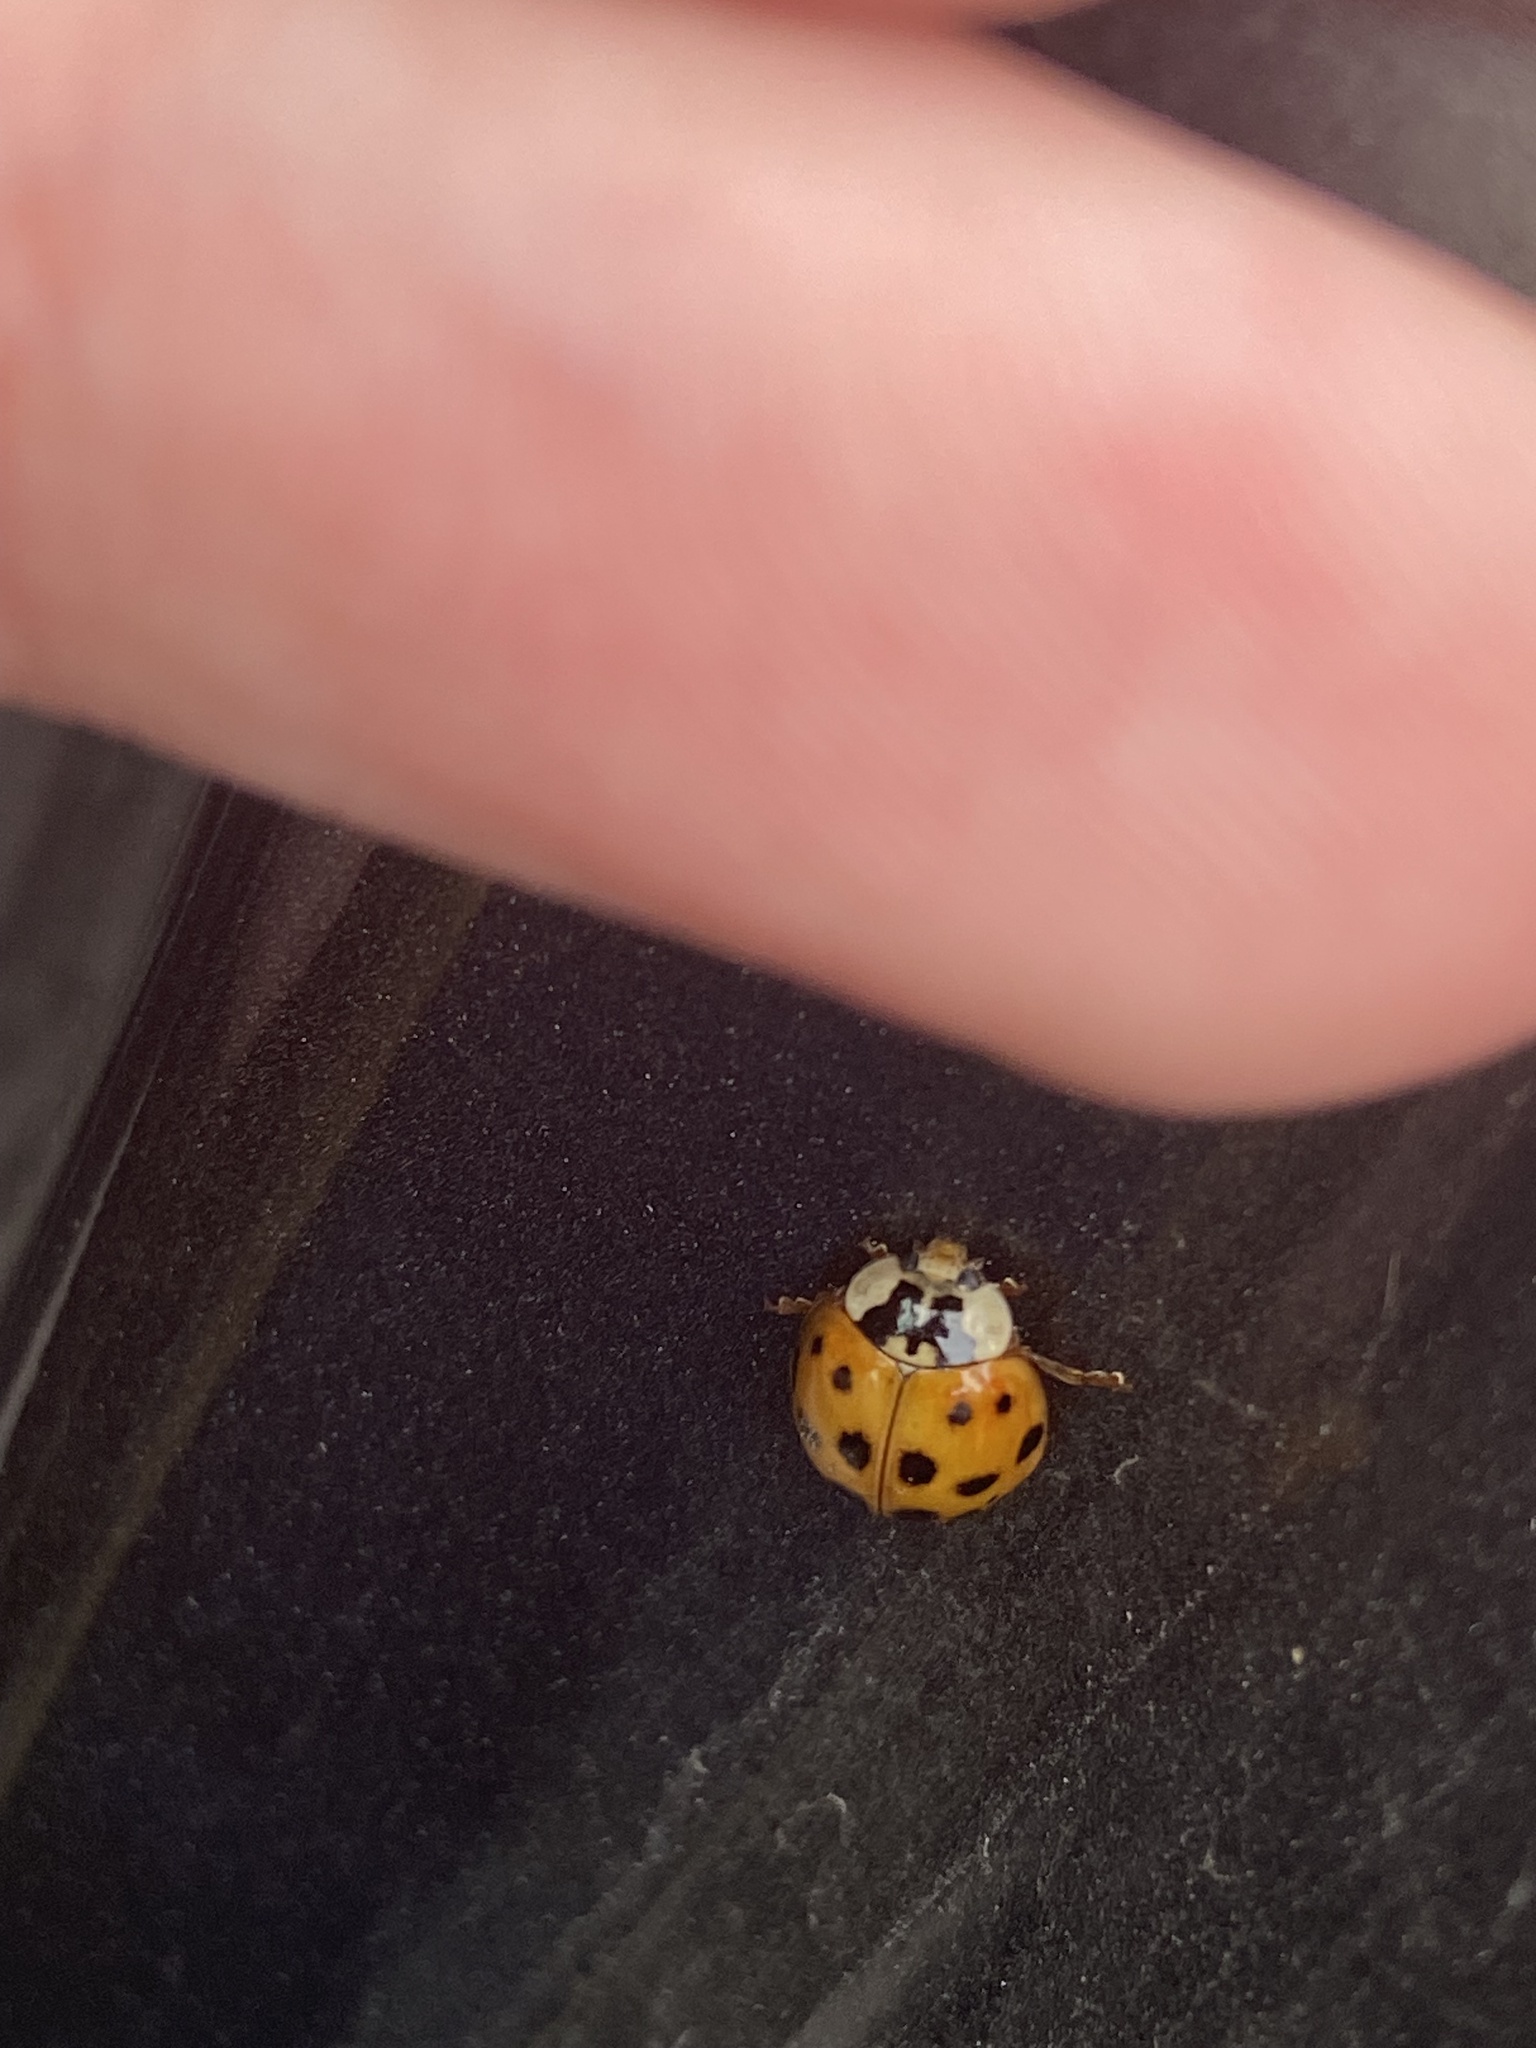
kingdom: Animalia
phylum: Arthropoda
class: Insecta
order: Coleoptera
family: Coccinellidae
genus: Harmonia
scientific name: Harmonia axyridis
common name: Harlequin ladybird
